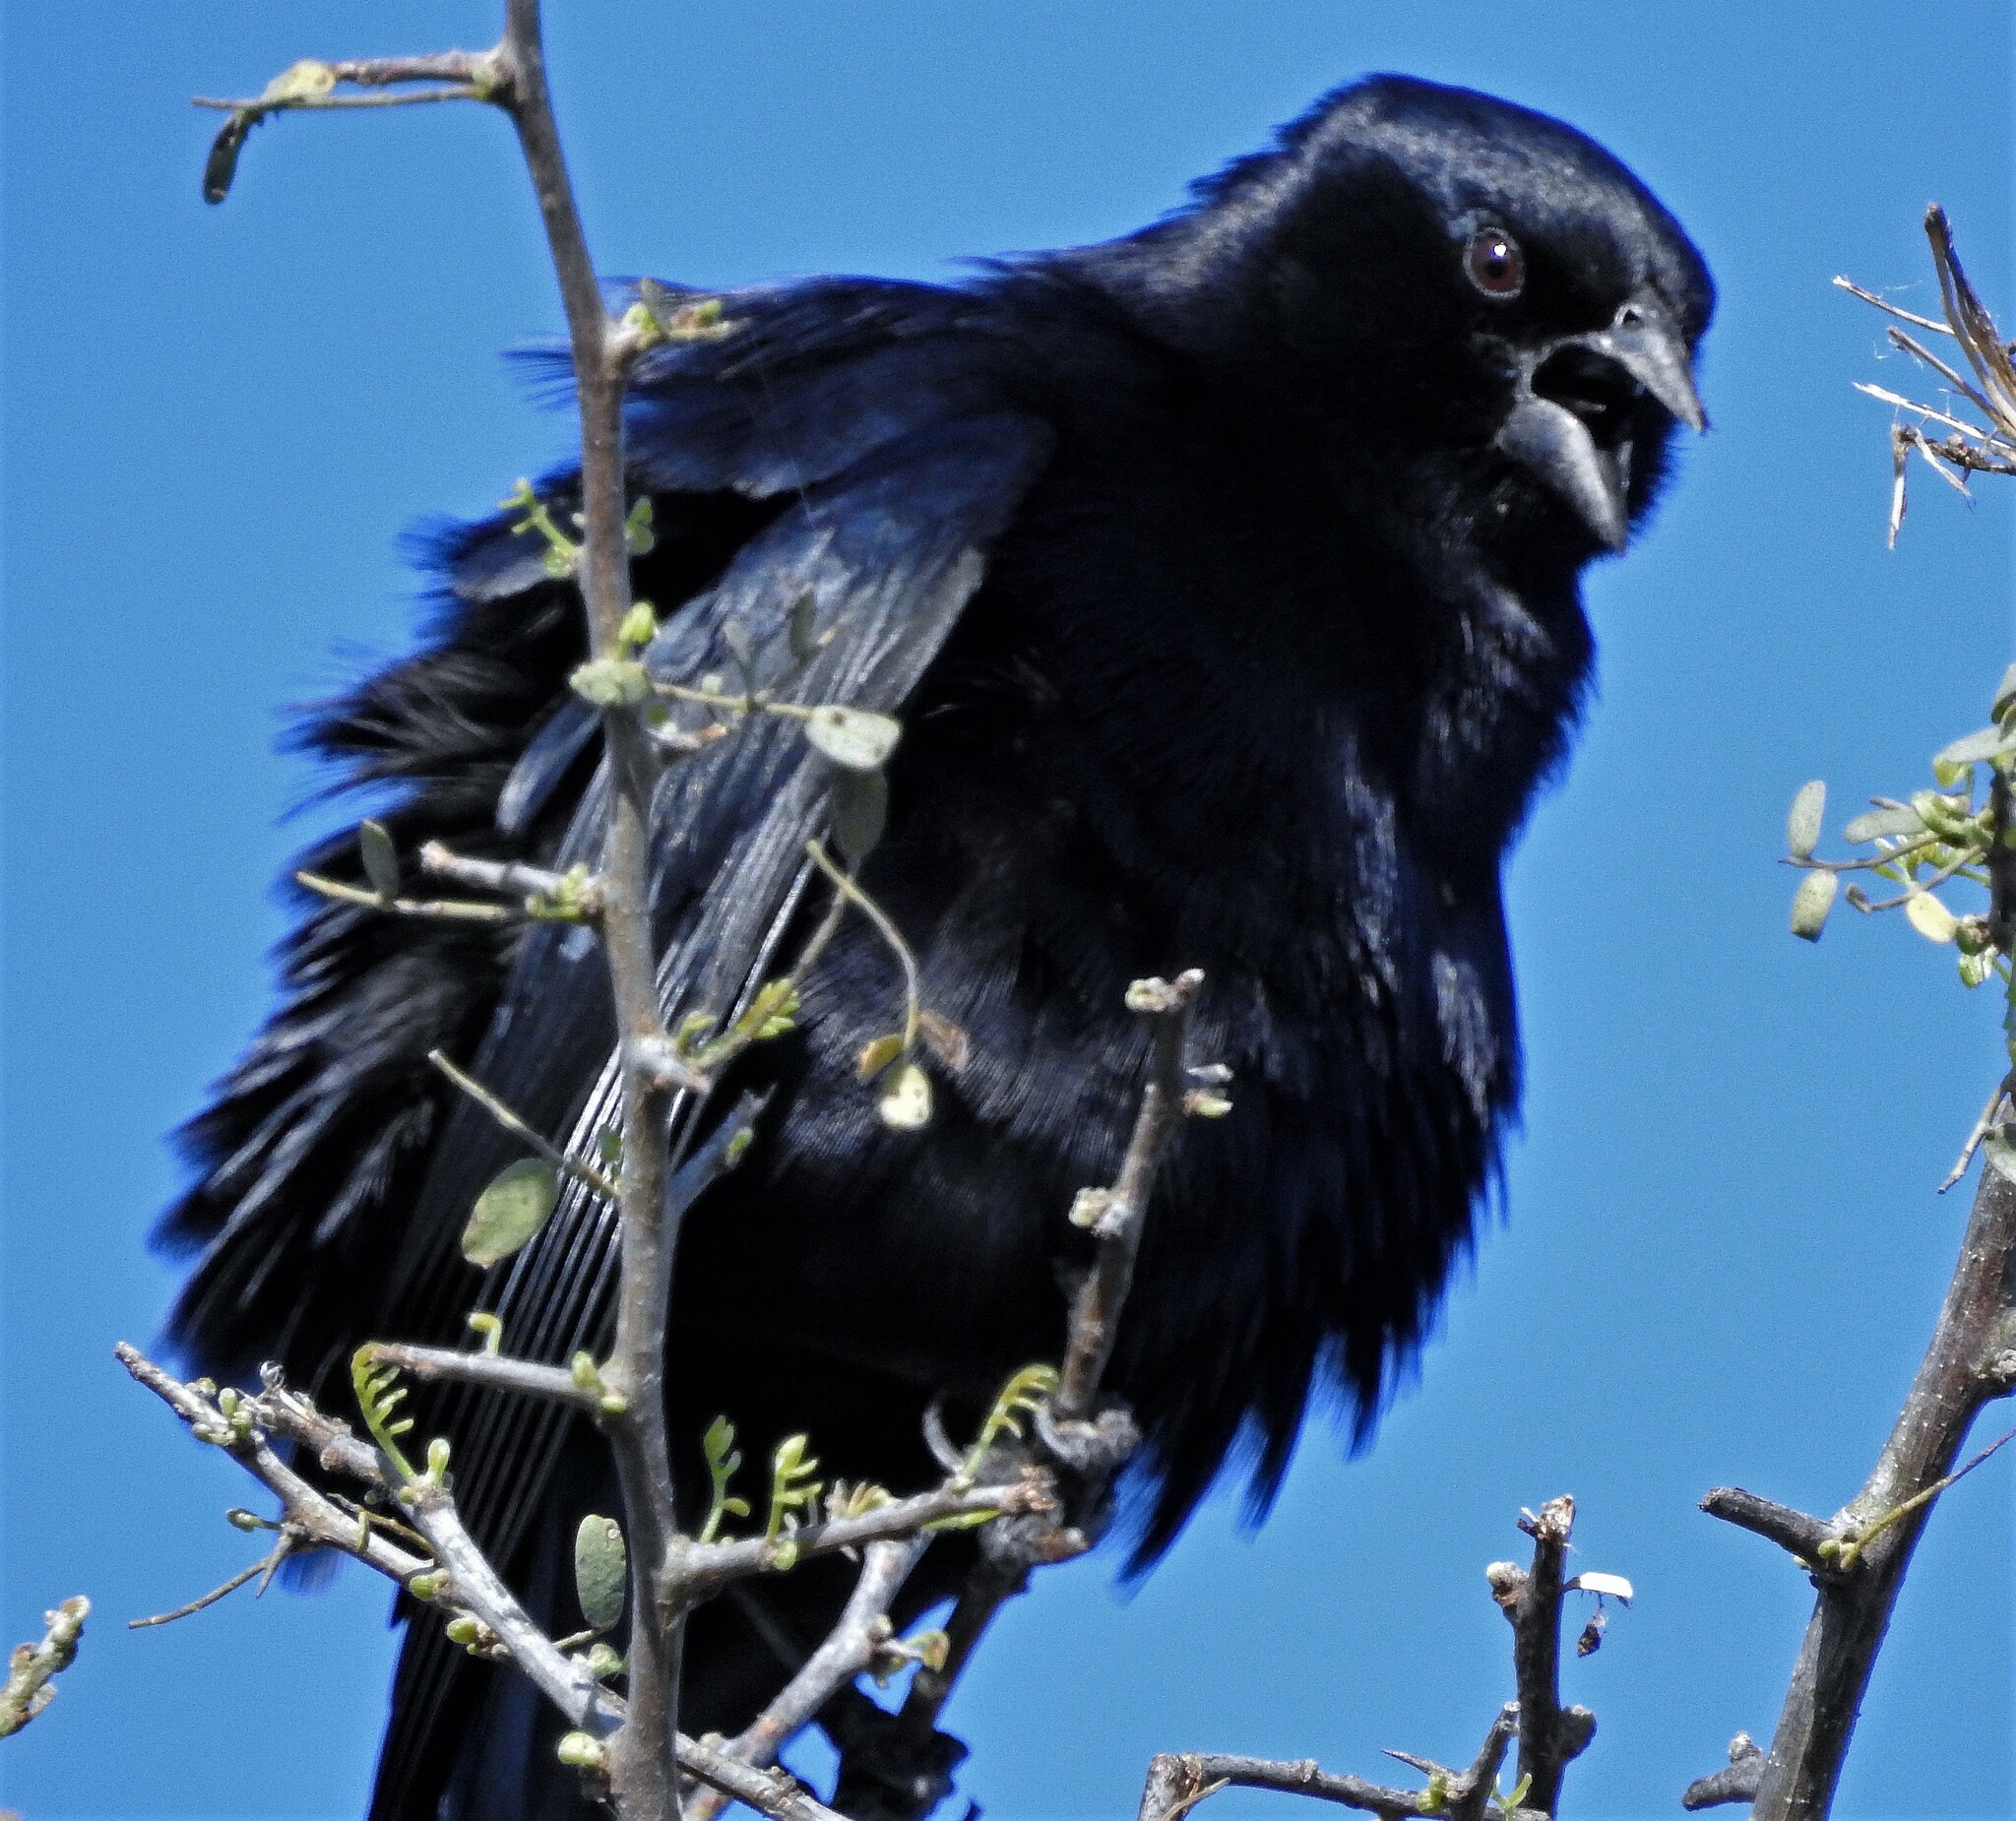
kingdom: Animalia
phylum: Chordata
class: Aves
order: Passeriformes
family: Icteridae
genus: Molothrus
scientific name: Molothrus rufoaxillaris
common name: Screaming cowbird
